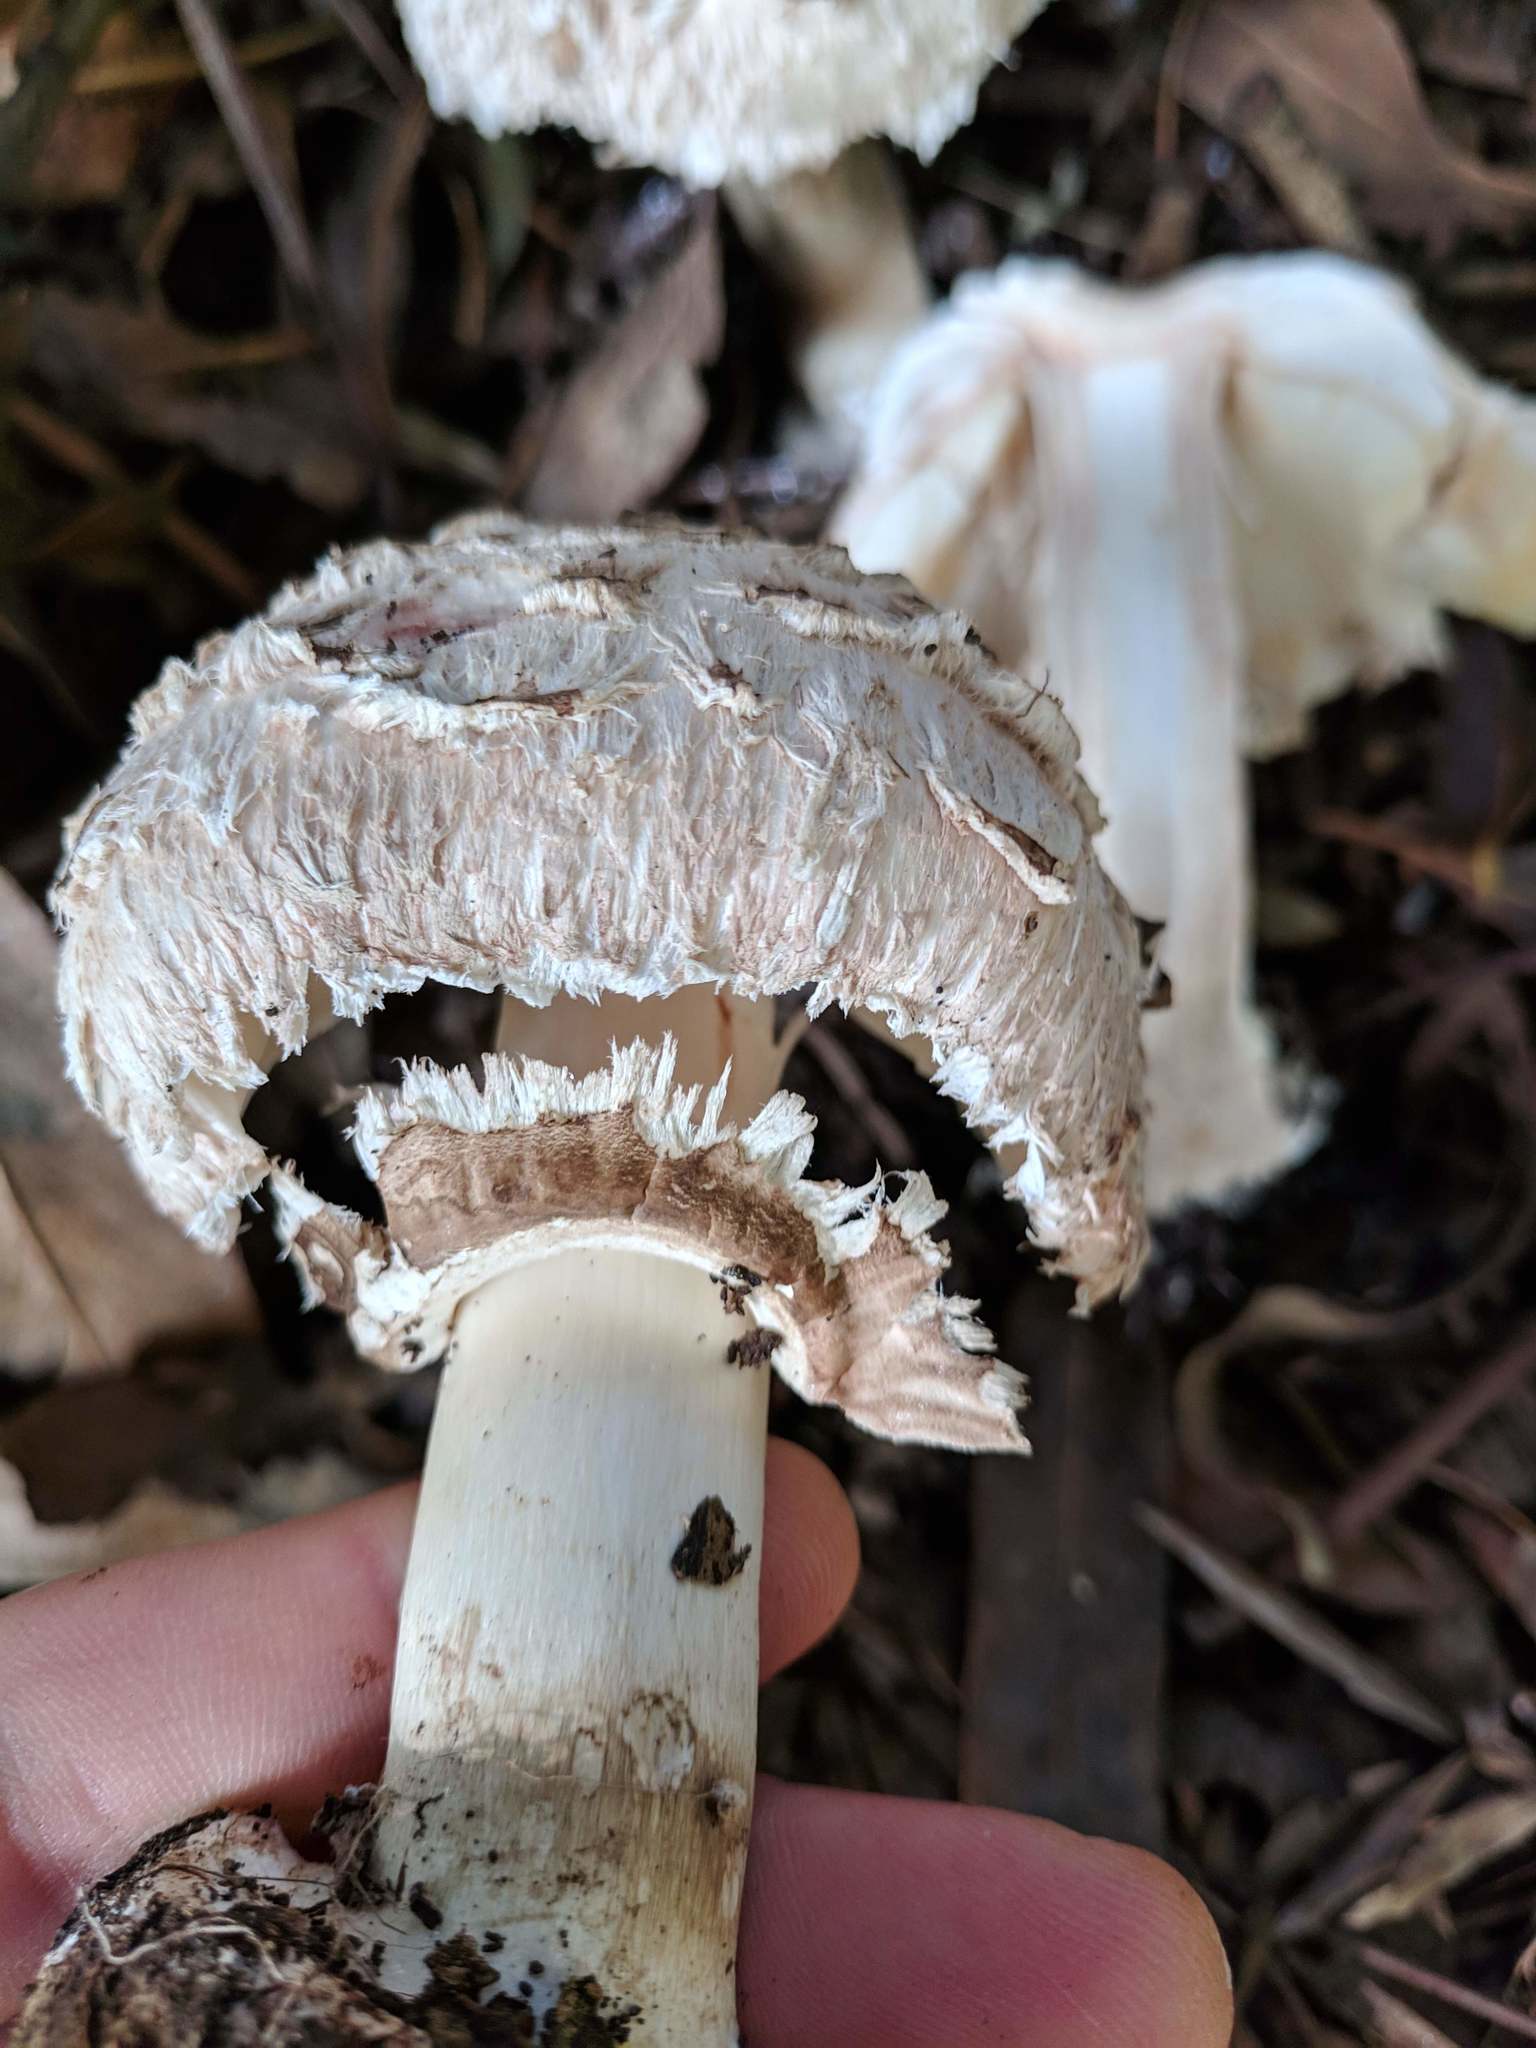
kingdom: Fungi
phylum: Basidiomycota
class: Agaricomycetes
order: Agaricales
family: Agaricaceae
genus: Chlorophyllum
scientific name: Chlorophyllum brunneum
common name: Brown parasol
